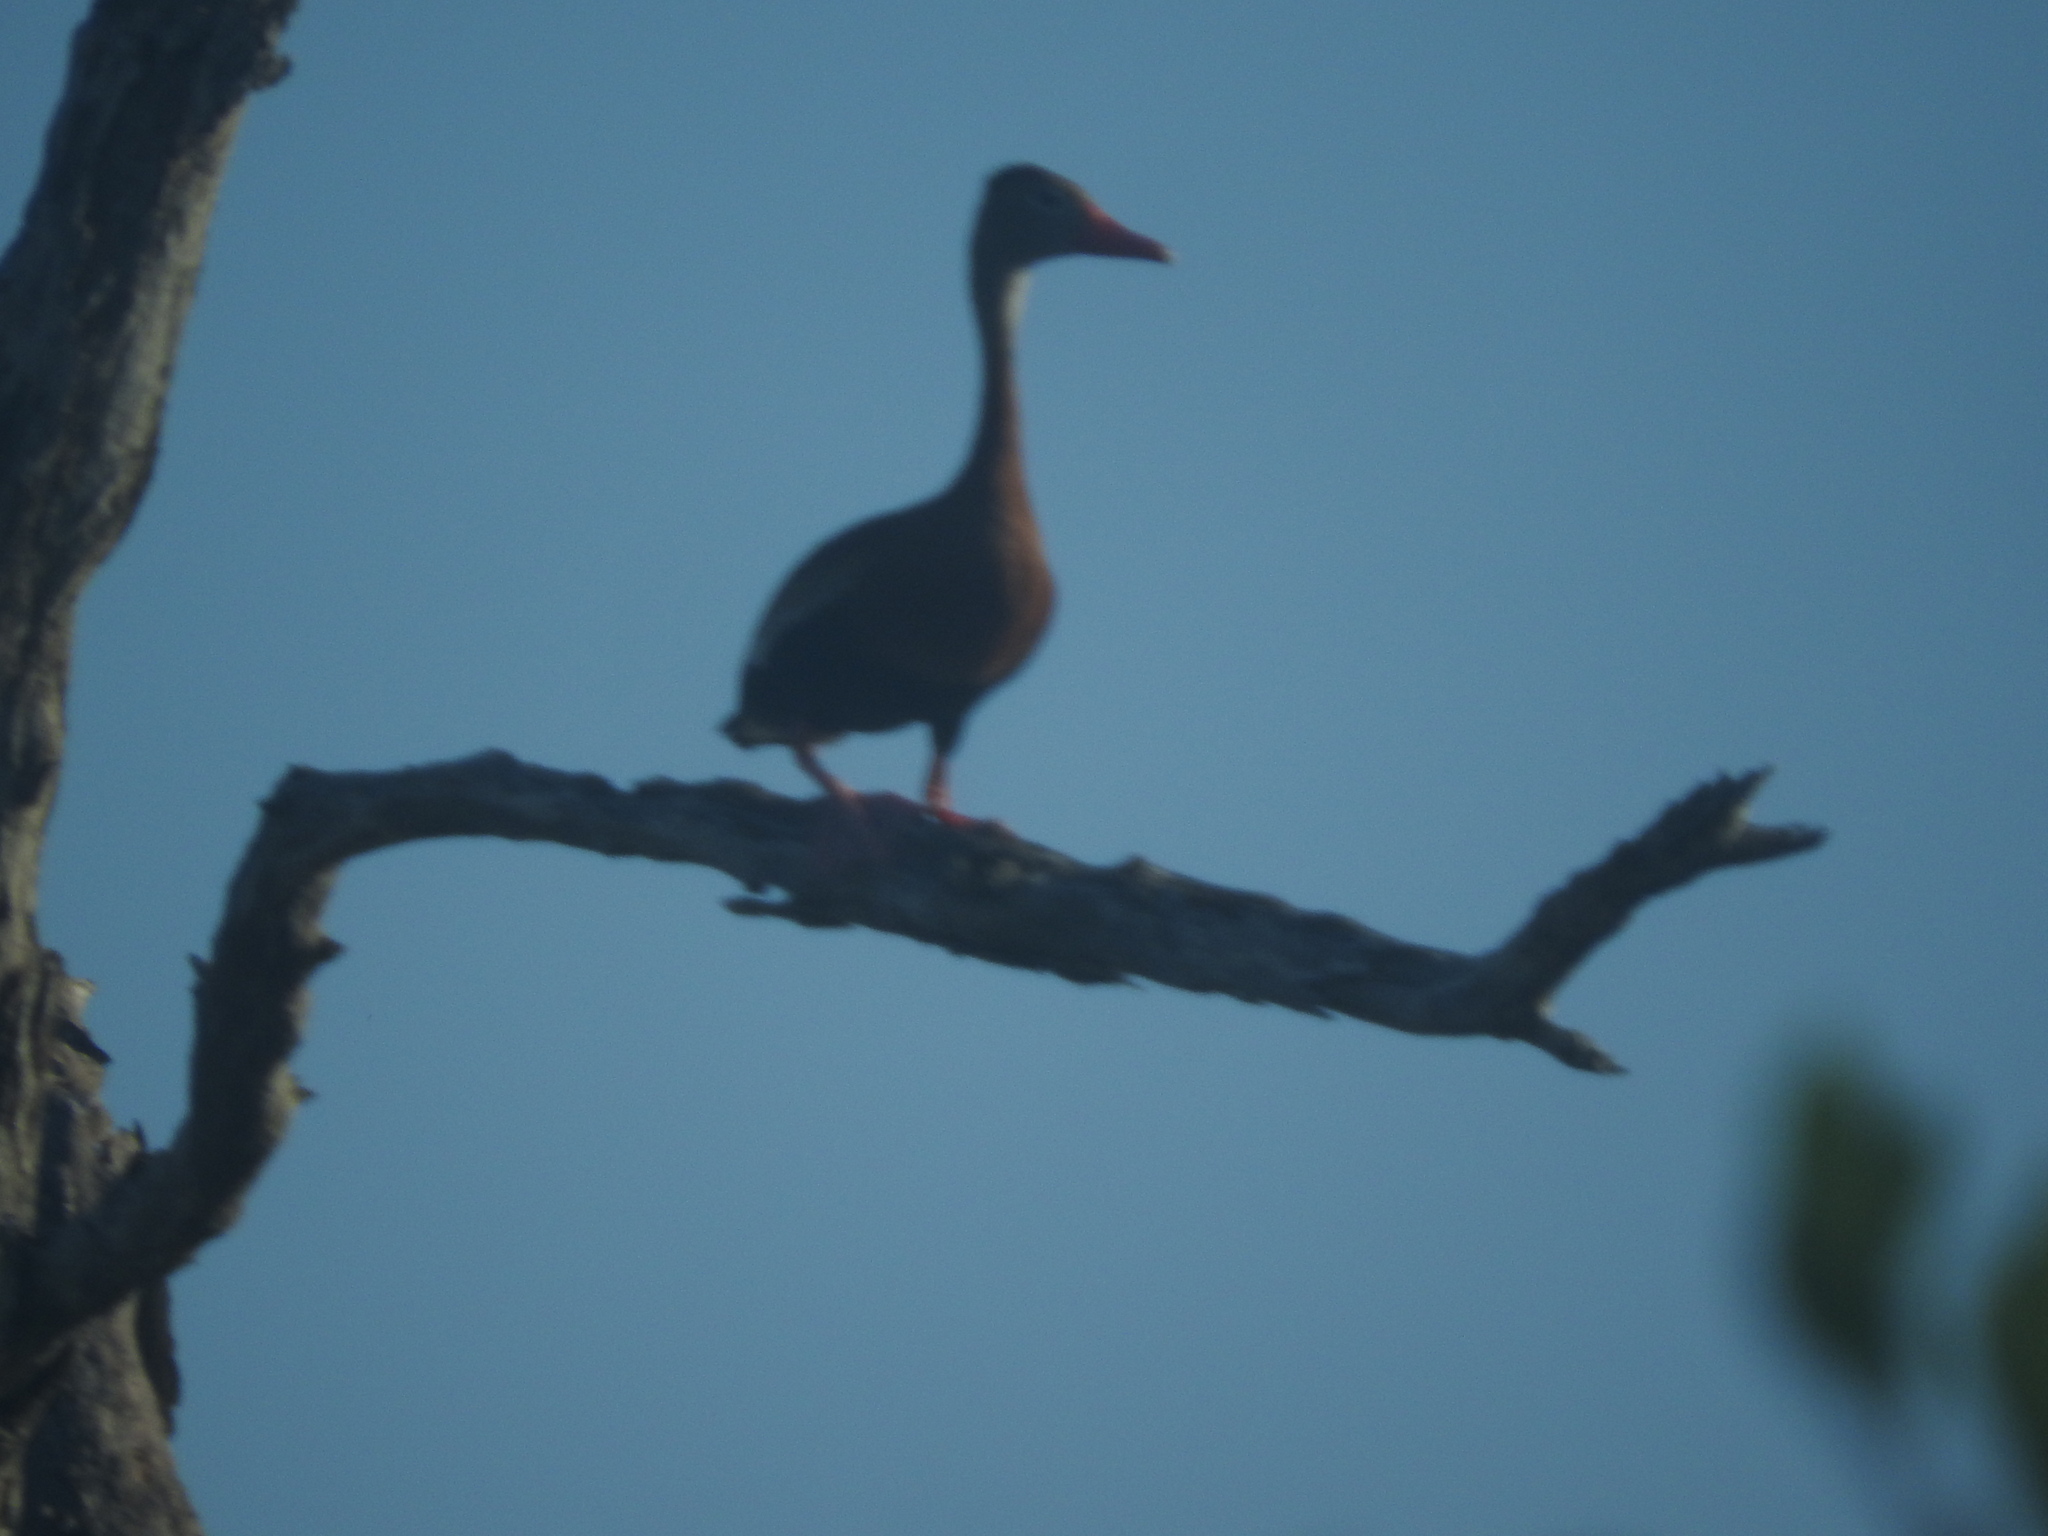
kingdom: Animalia
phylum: Chordata
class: Aves
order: Anseriformes
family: Anatidae
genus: Dendrocygna
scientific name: Dendrocygna autumnalis
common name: Black-bellied whistling duck
